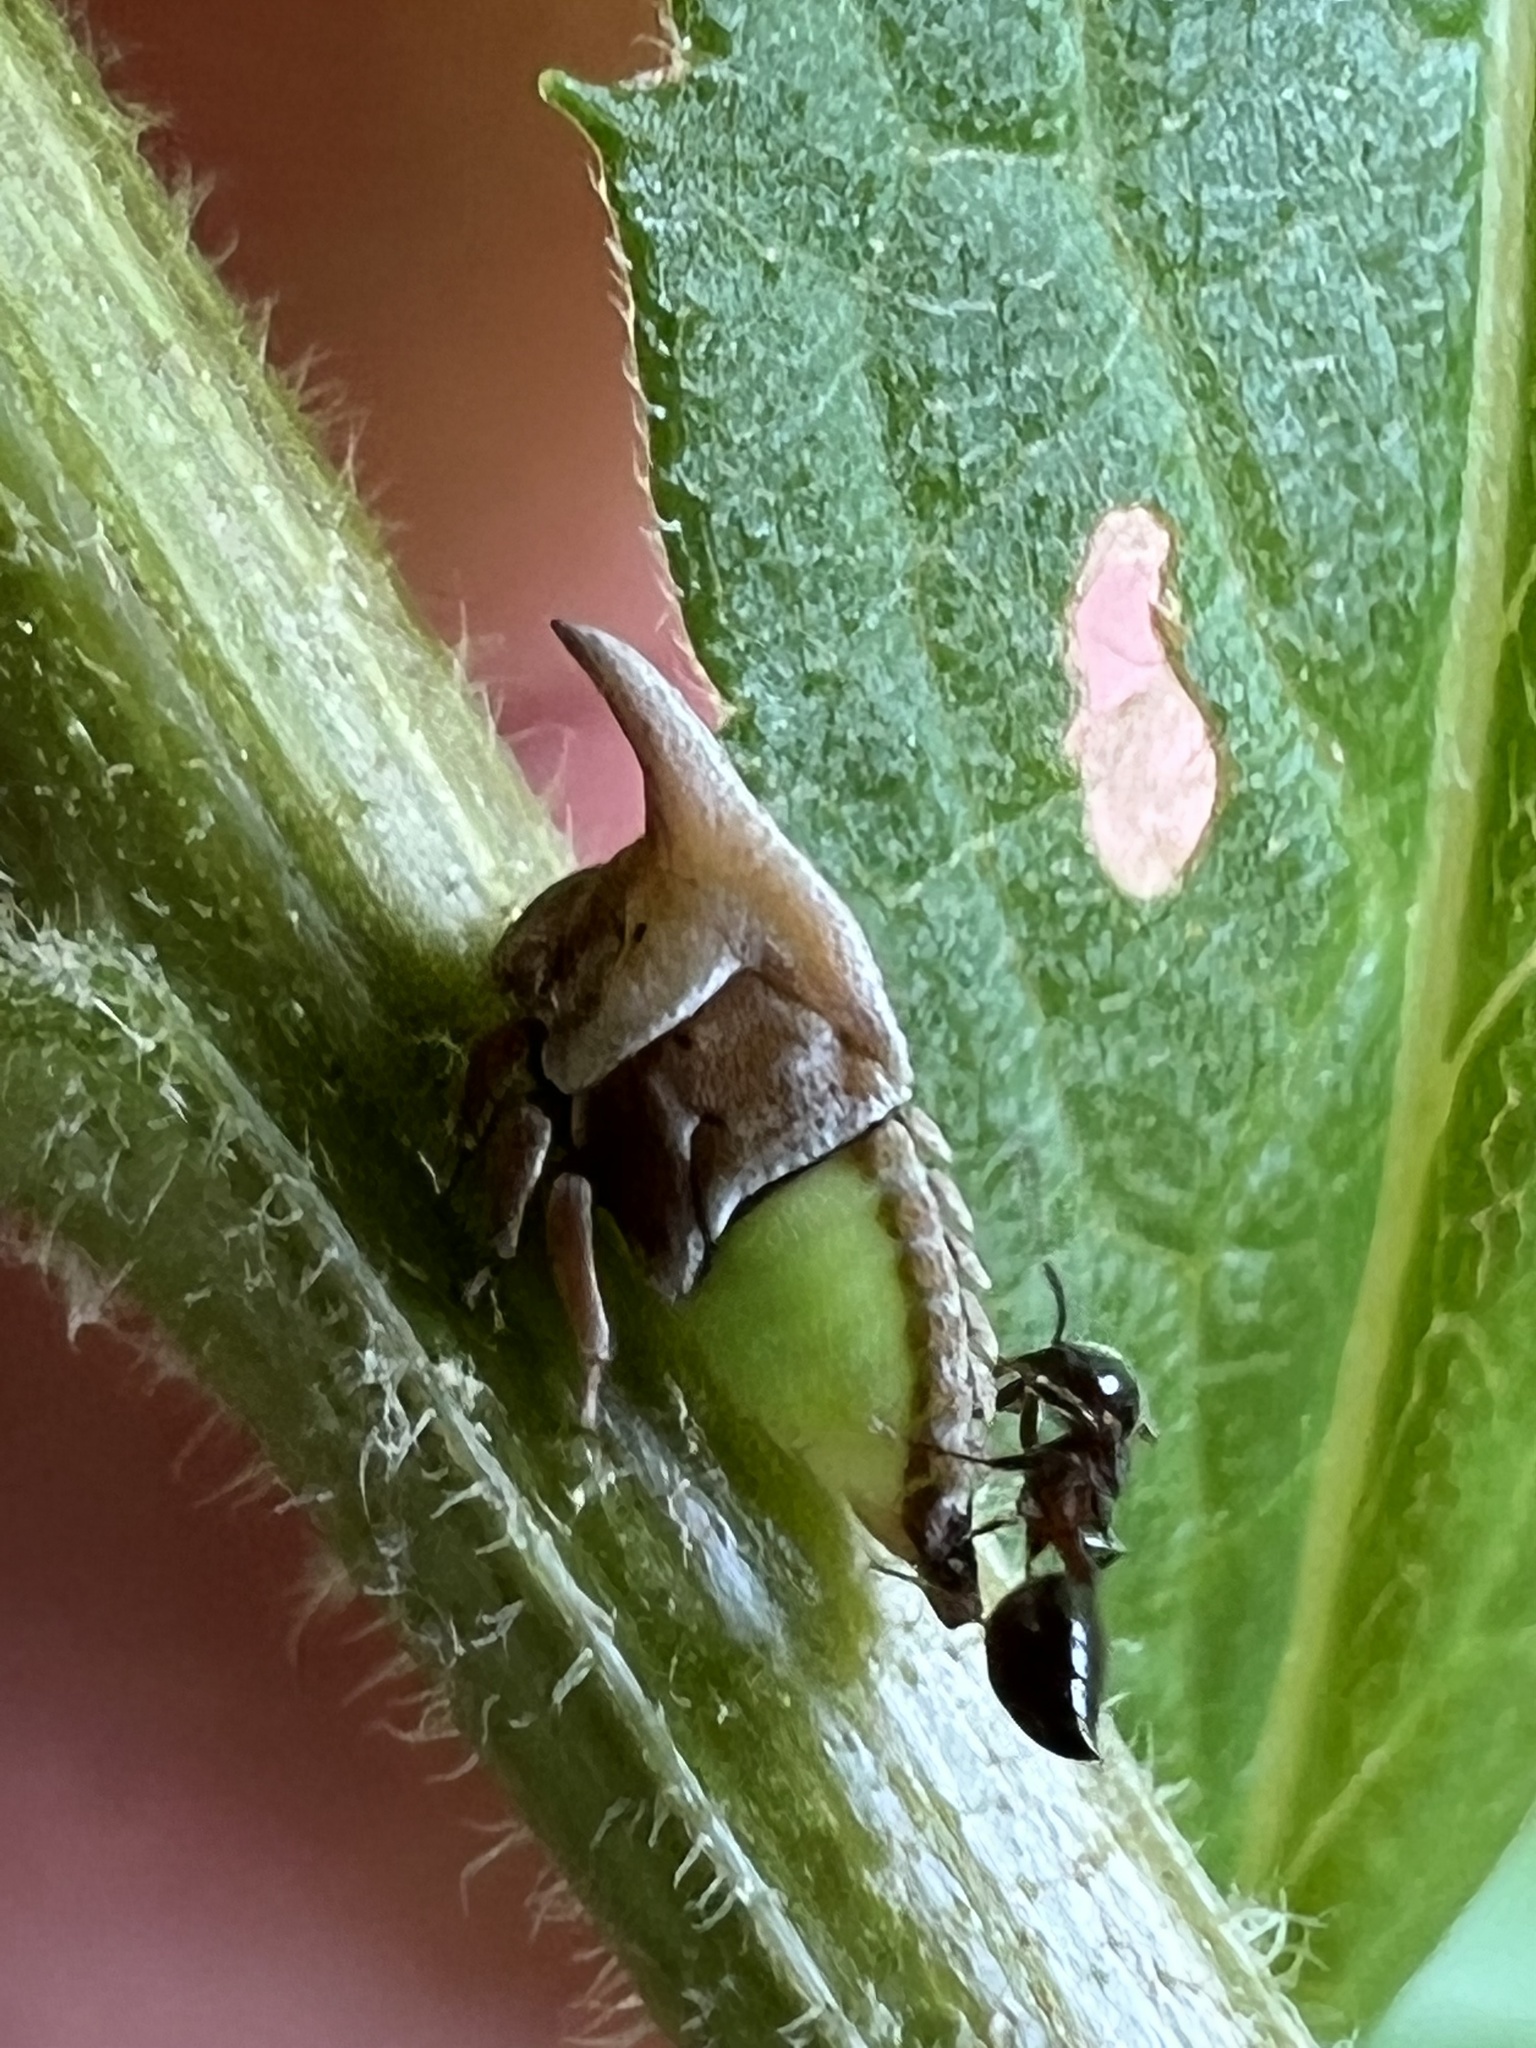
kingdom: Animalia
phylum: Arthropoda
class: Insecta
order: Hemiptera
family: Membracidae
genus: Enchenopa
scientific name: Enchenopa latipes
